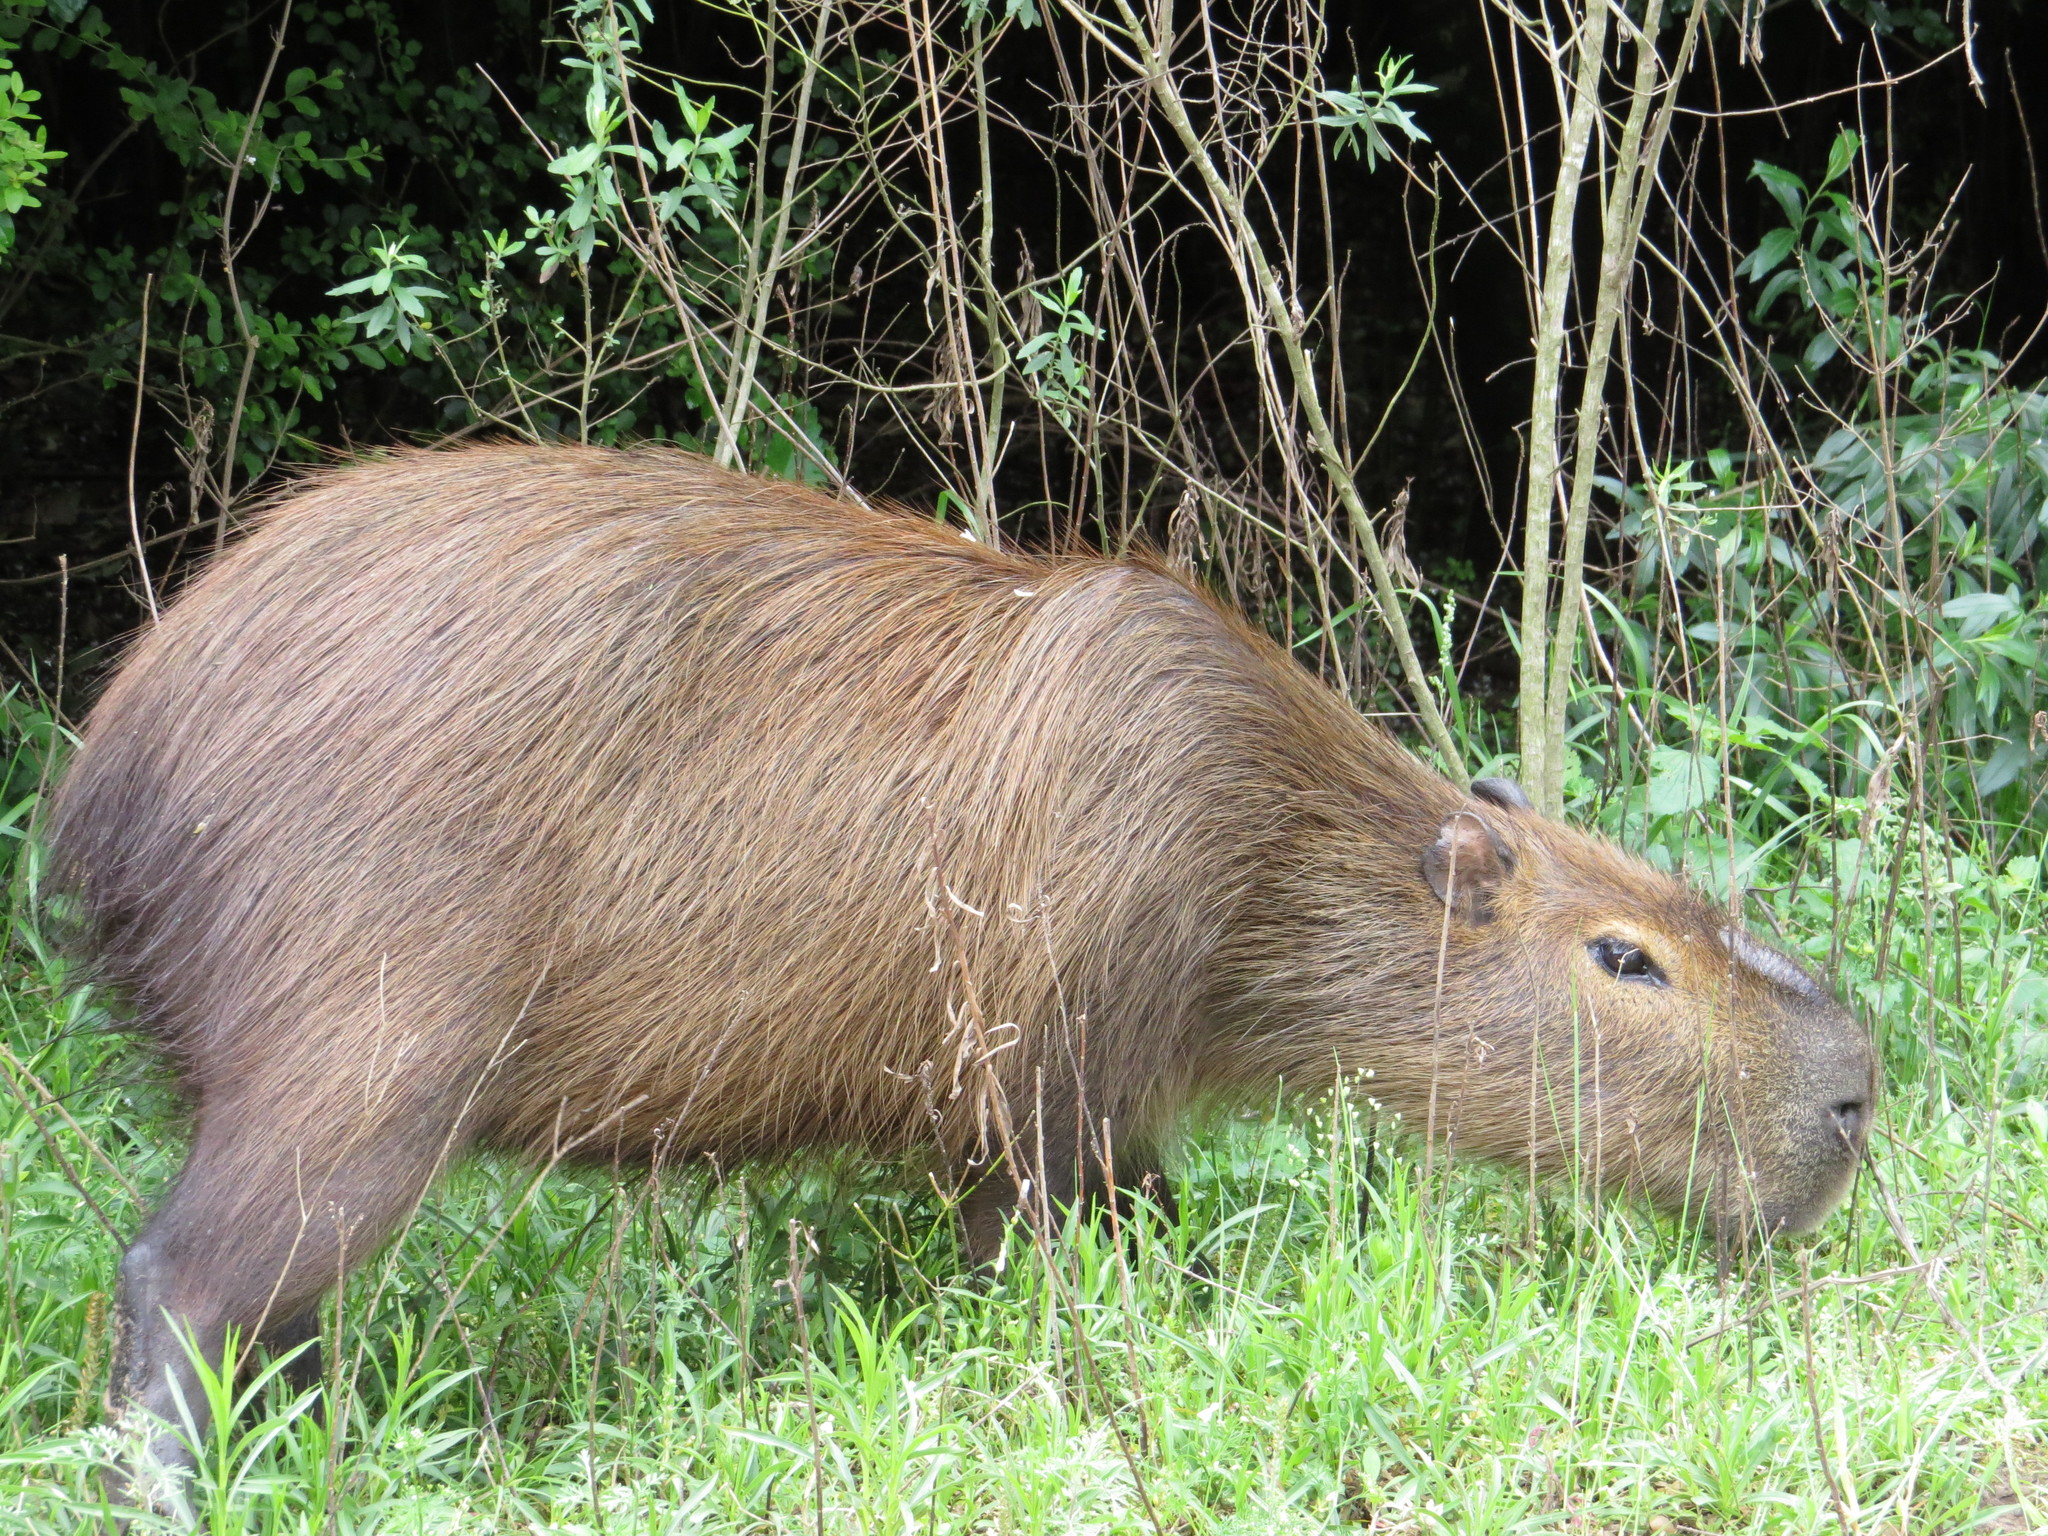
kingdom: Animalia
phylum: Chordata
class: Mammalia
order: Rodentia
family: Caviidae
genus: Hydrochoerus
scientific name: Hydrochoerus hydrochaeris
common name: Capybara
